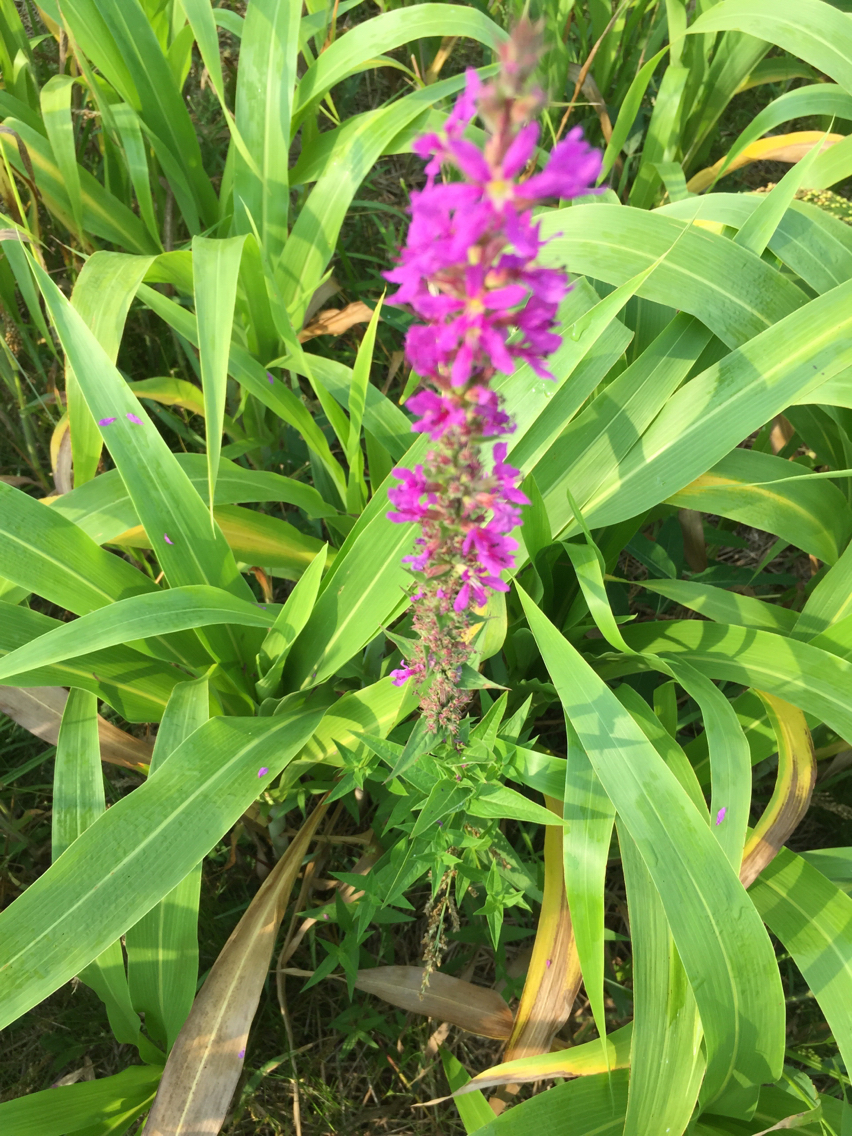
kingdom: Plantae
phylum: Tracheophyta
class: Magnoliopsida
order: Myrtales
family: Lythraceae
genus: Lythrum
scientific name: Lythrum salicaria
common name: Purple loosestrife
